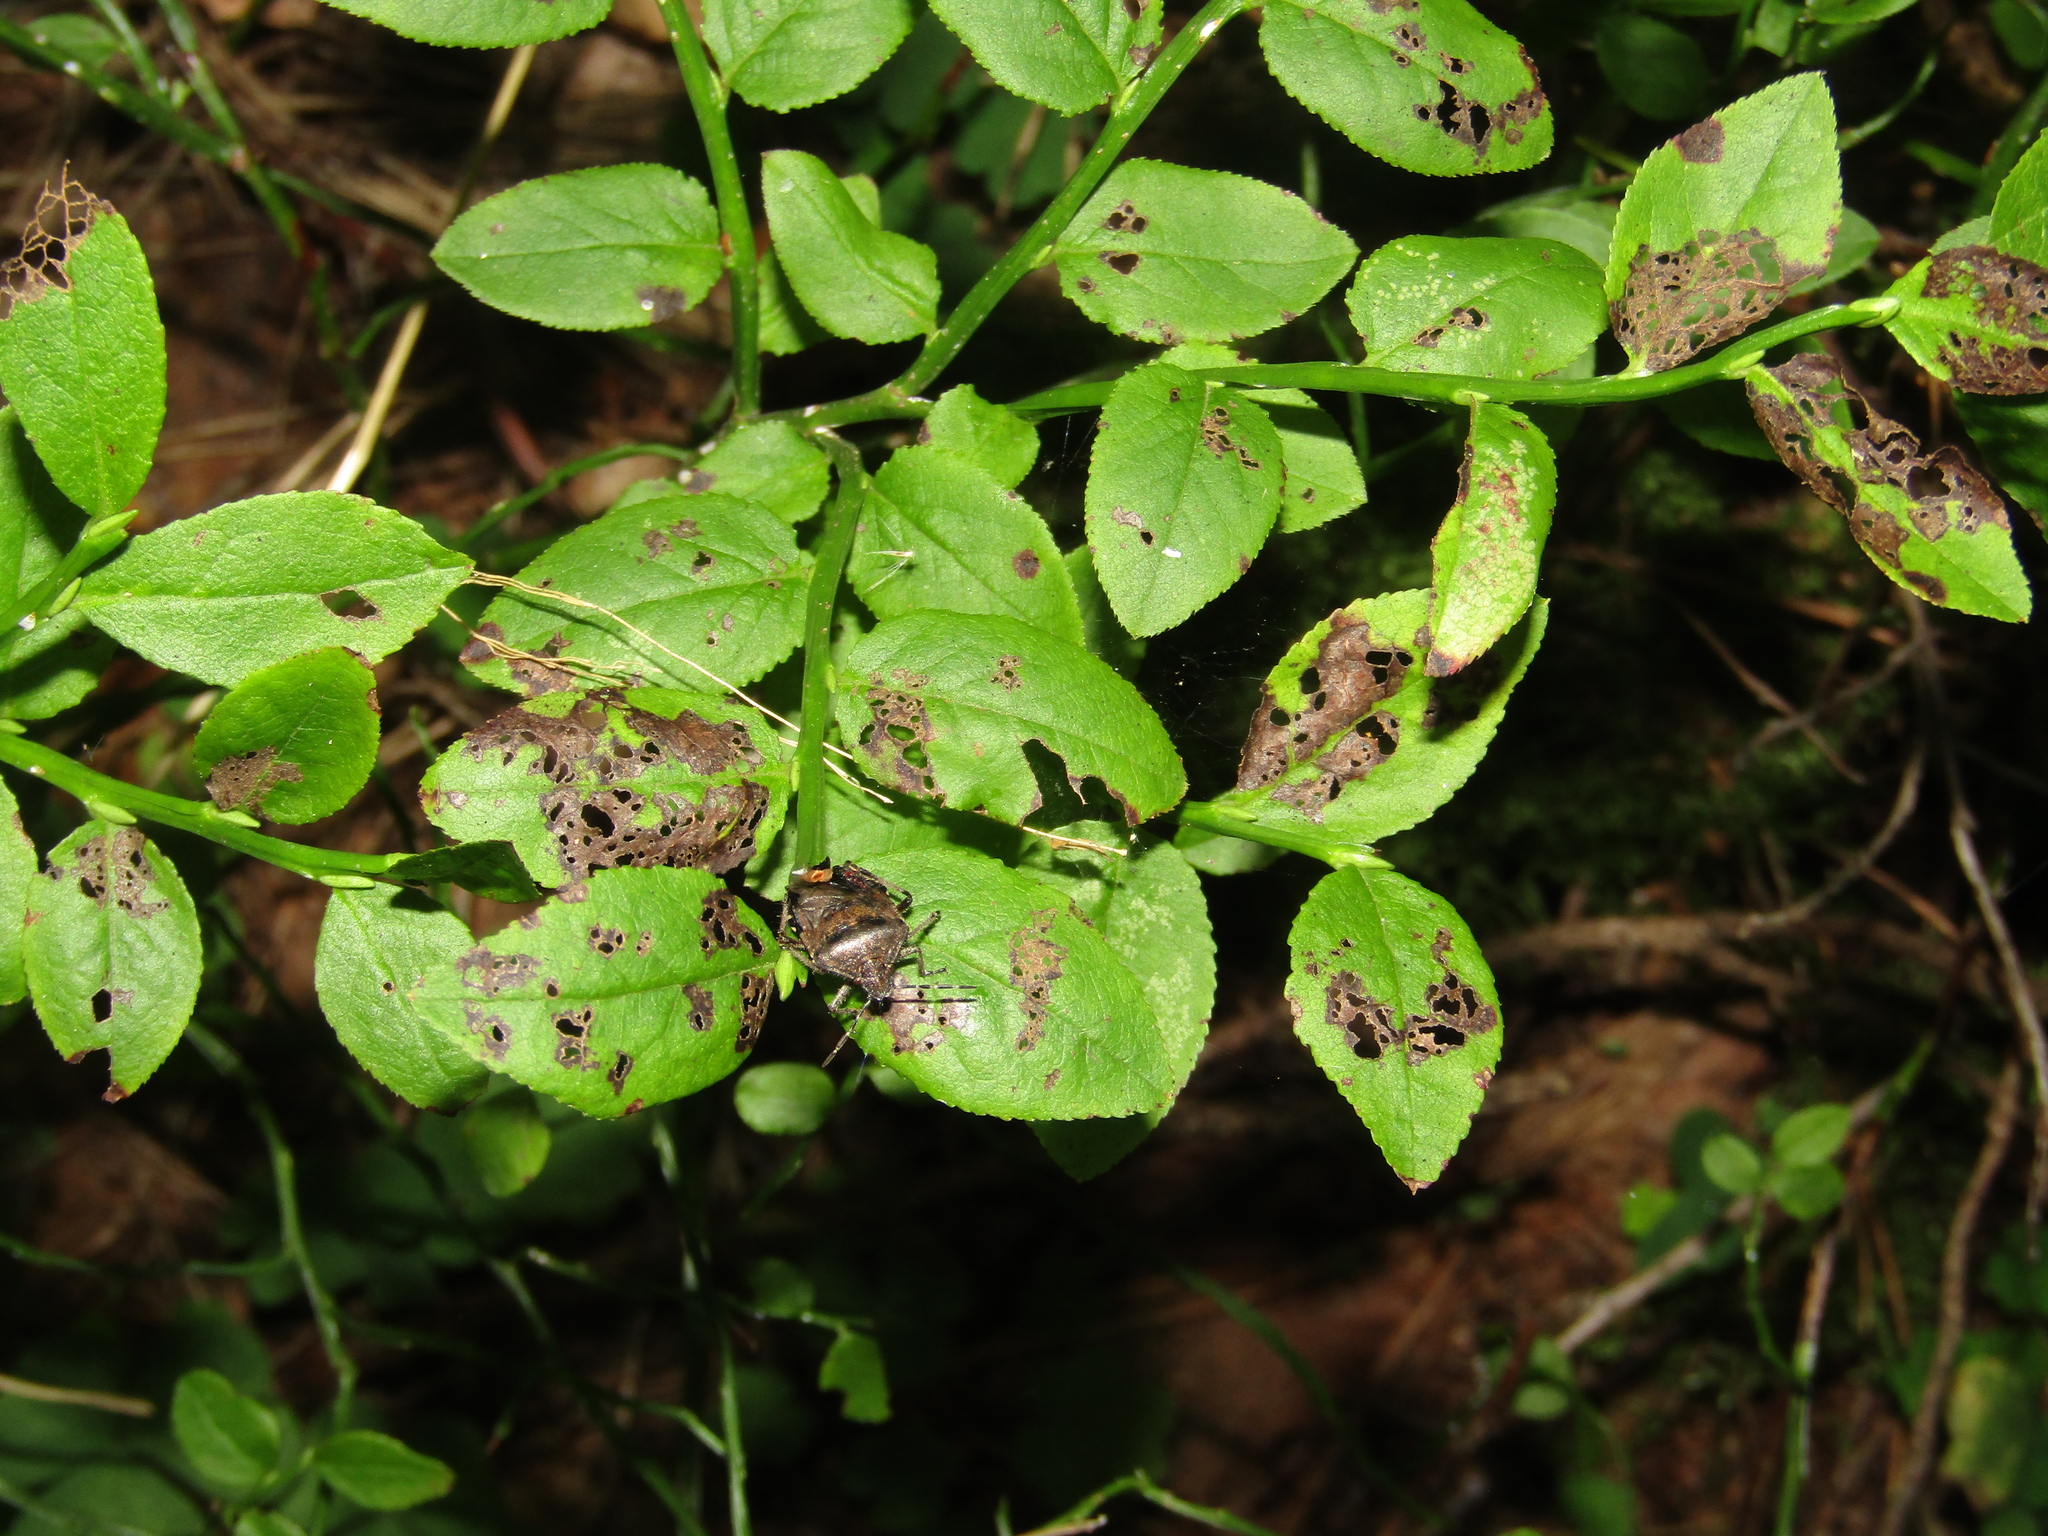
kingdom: Plantae
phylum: Tracheophyta
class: Magnoliopsida
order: Ericales
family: Ericaceae
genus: Vaccinium
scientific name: Vaccinium myrtillus
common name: Bilberry
